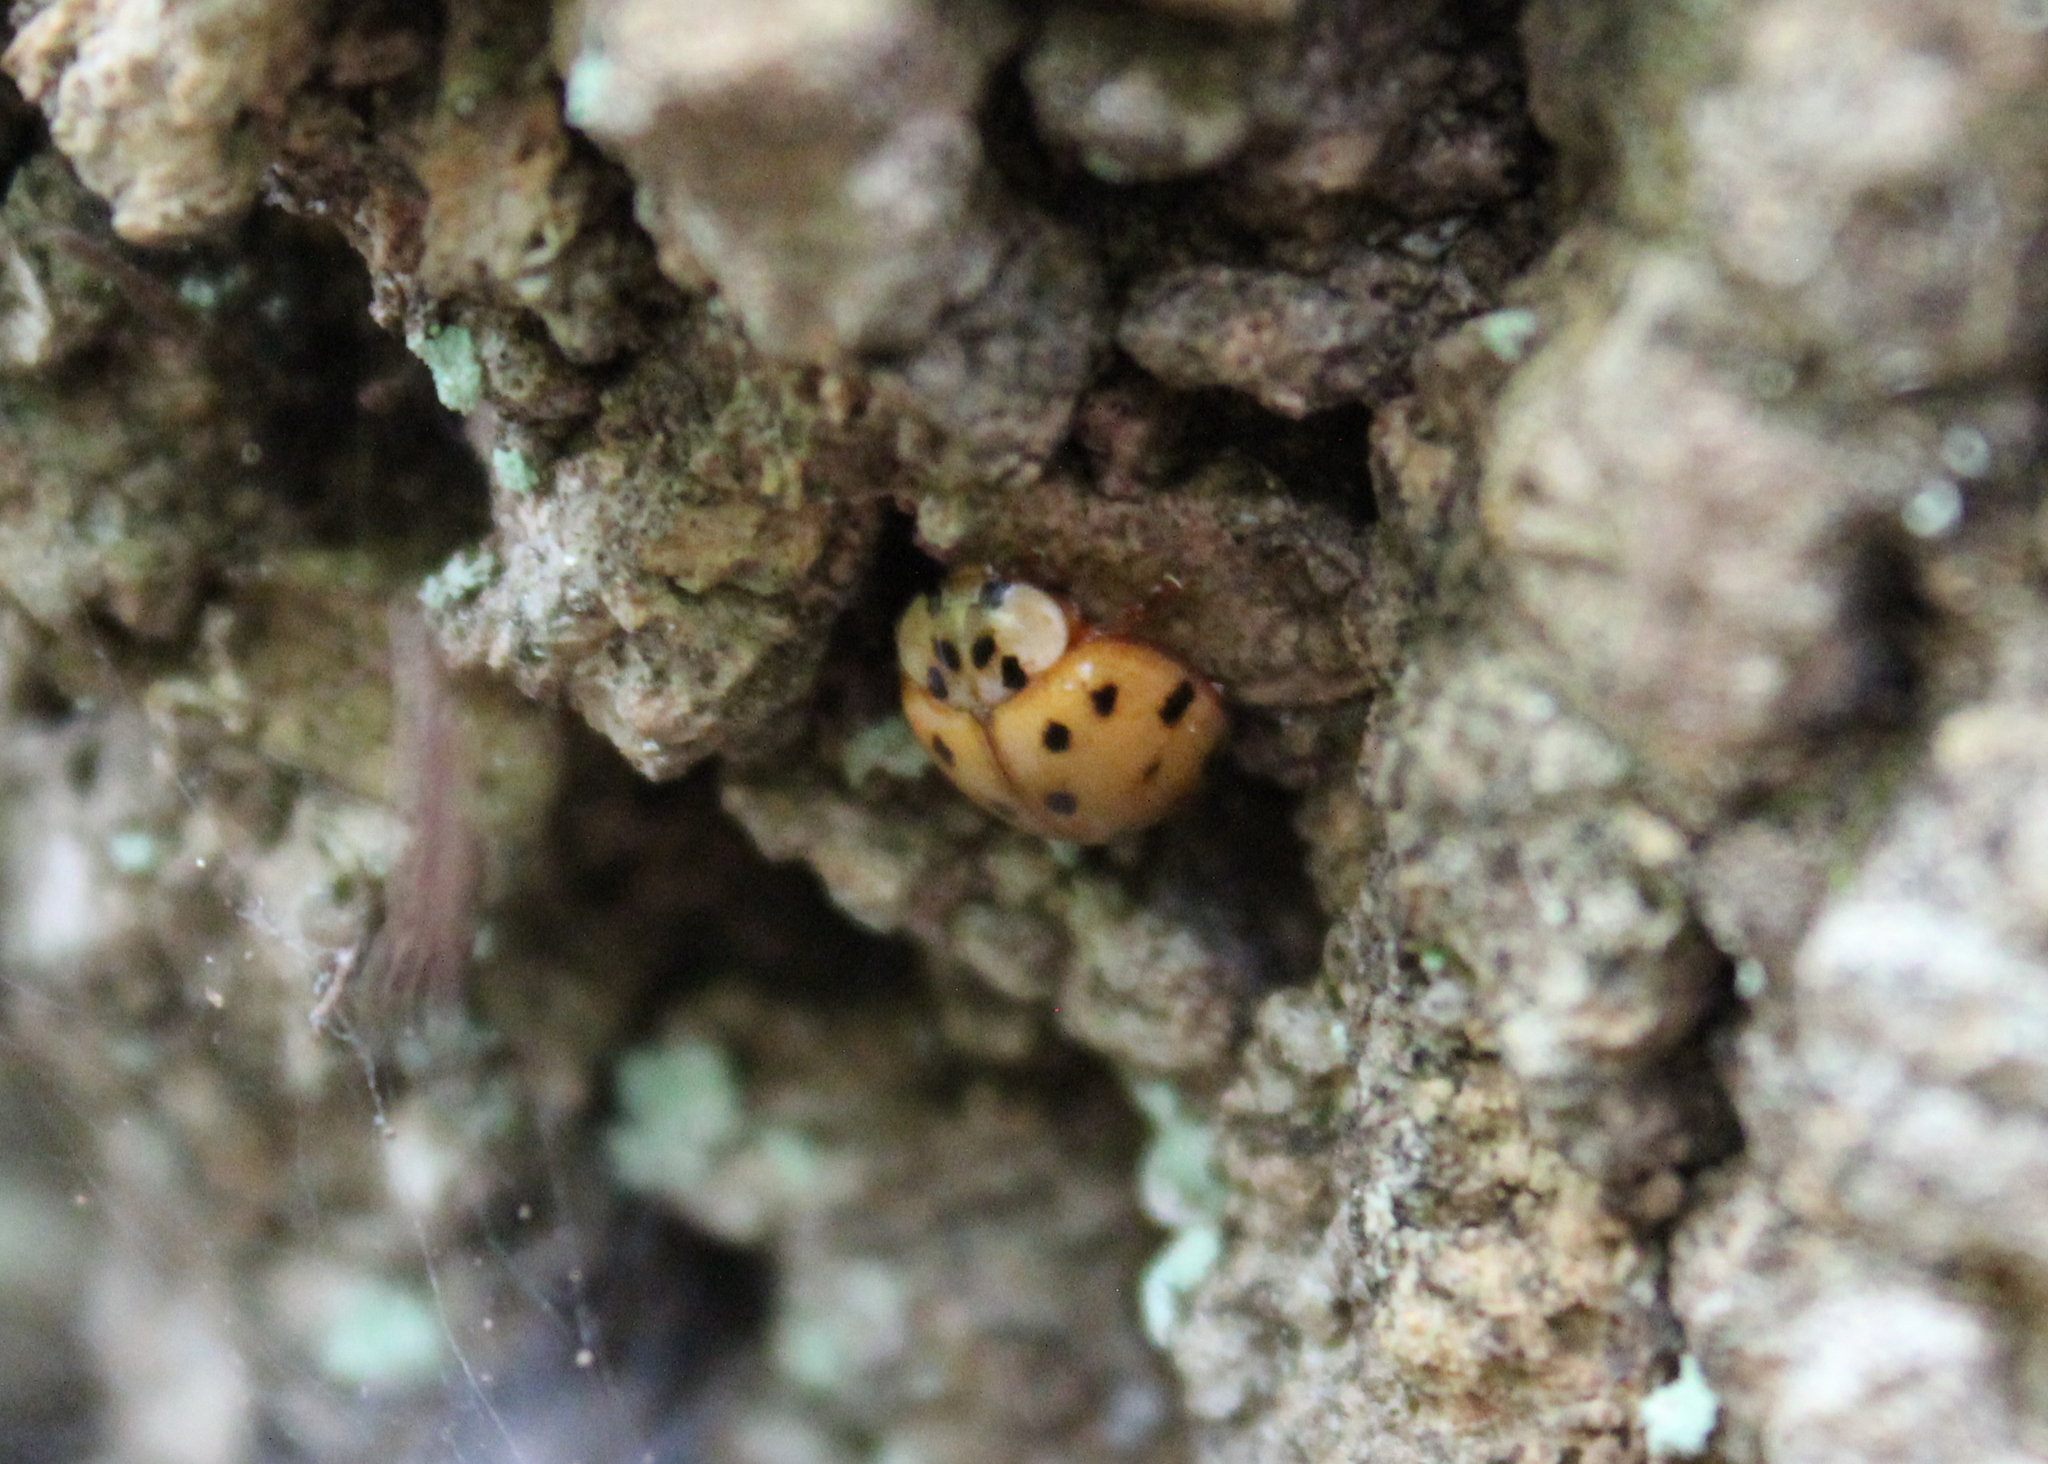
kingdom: Animalia
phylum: Arthropoda
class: Insecta
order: Coleoptera
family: Coccinellidae
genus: Harmonia
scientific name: Harmonia axyridis
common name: Harlequin ladybird
